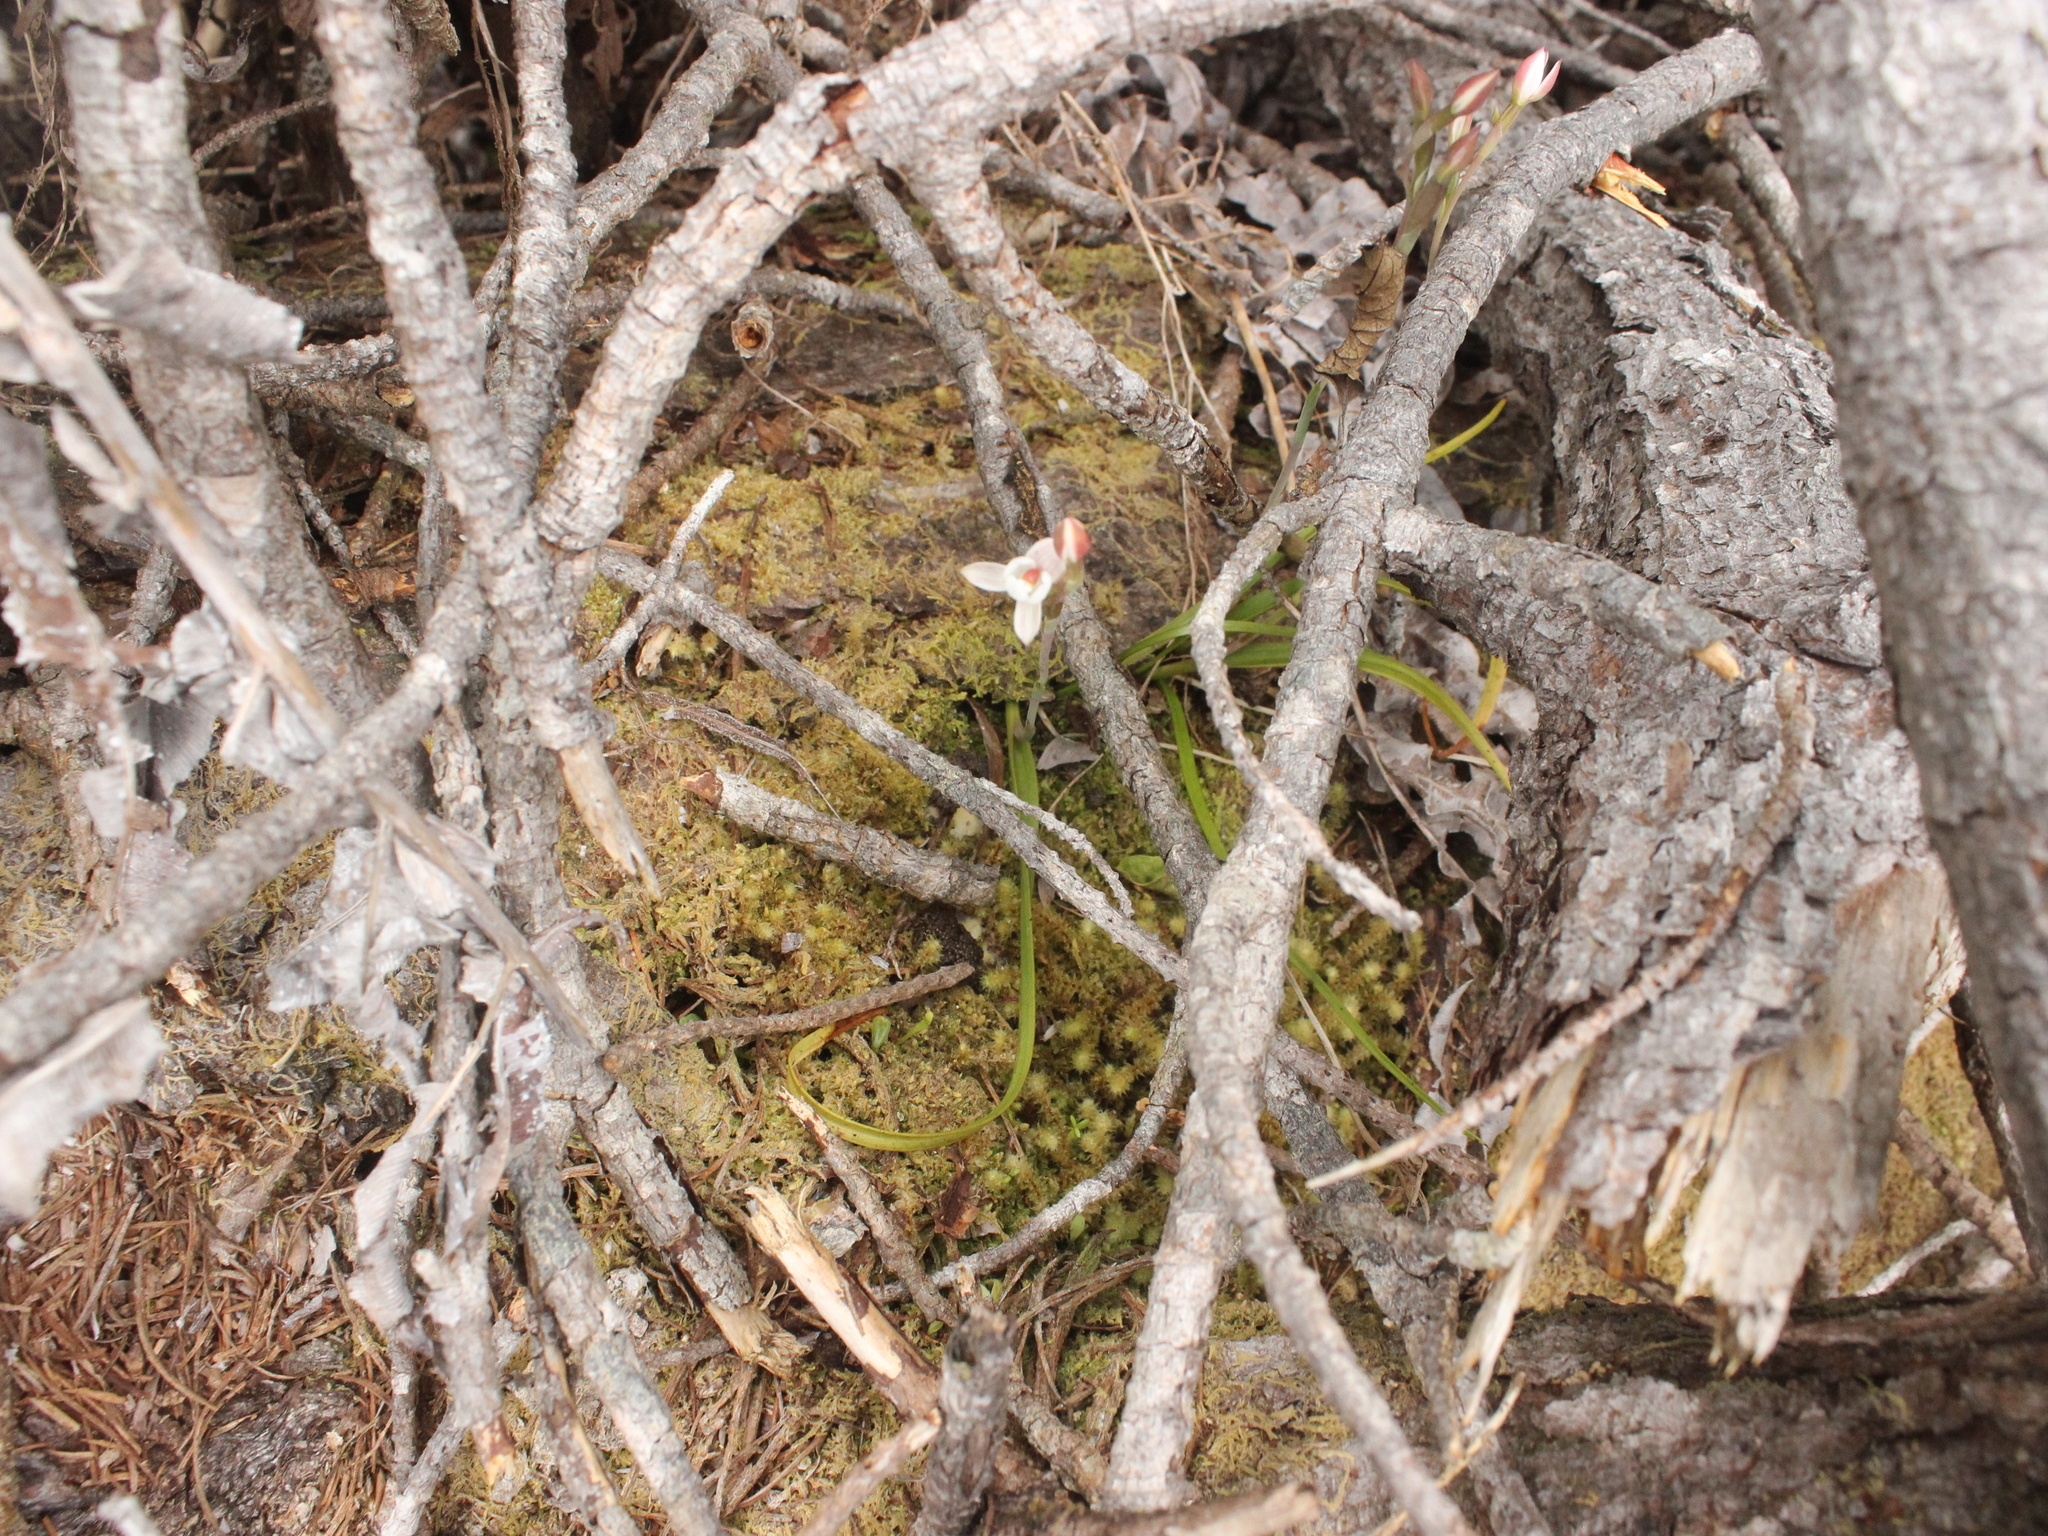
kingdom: Plantae
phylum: Tracheophyta
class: Liliopsida
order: Asparagales
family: Orchidaceae
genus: Thelymitra
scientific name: Thelymitra longifolia
